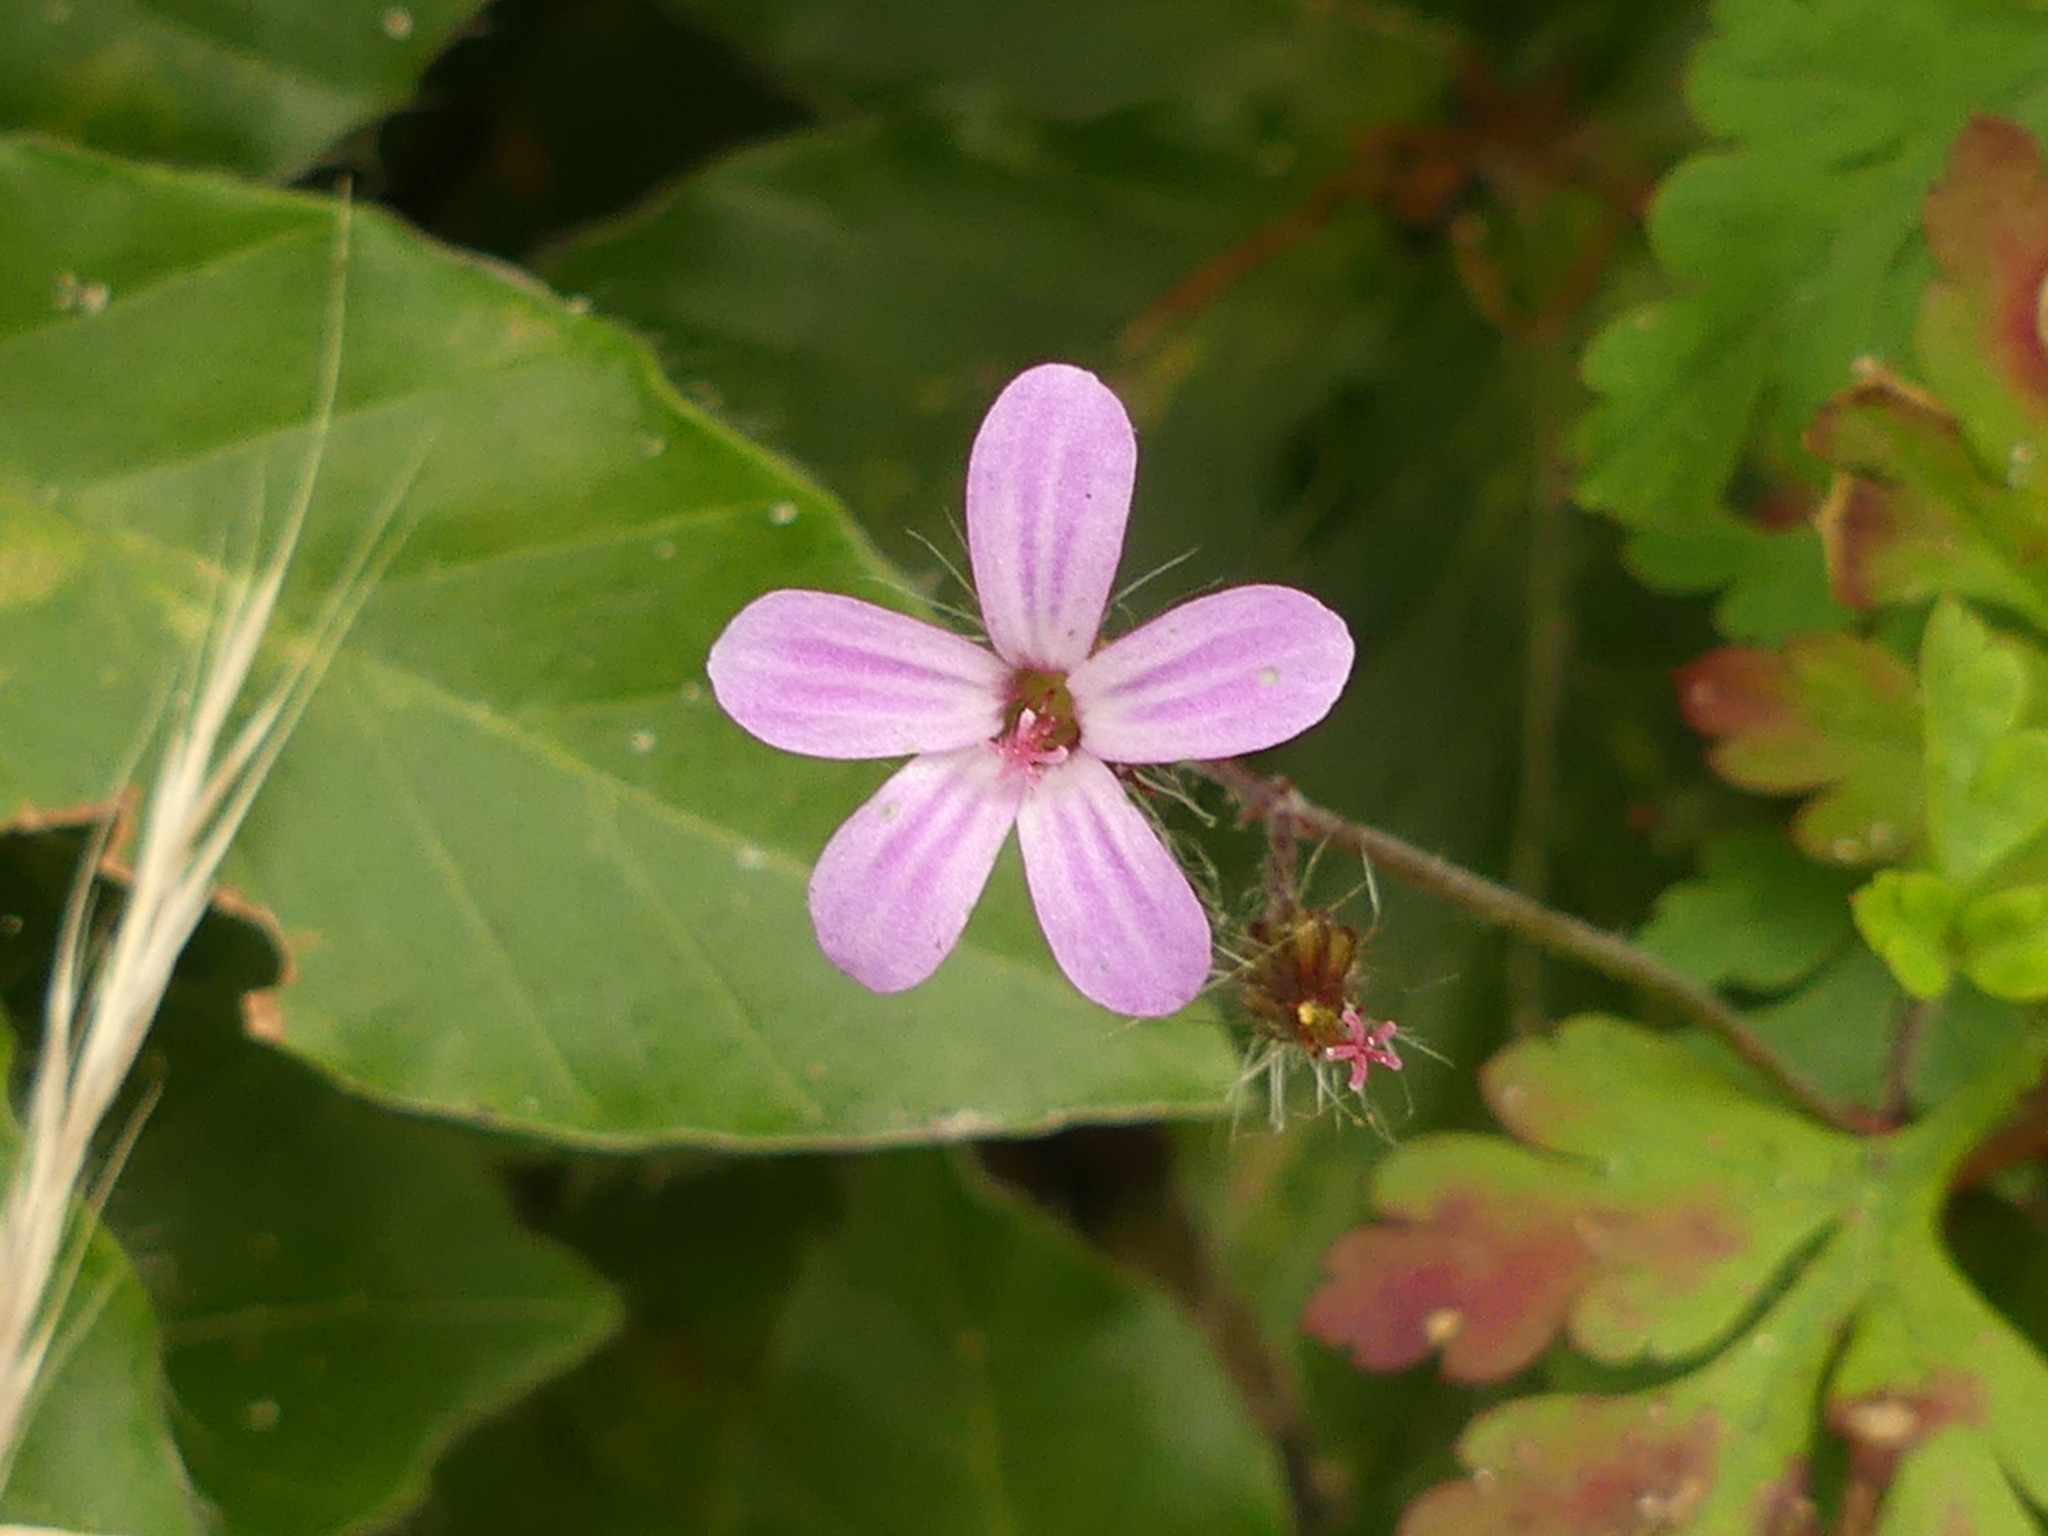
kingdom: Plantae
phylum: Tracheophyta
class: Magnoliopsida
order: Geraniales
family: Geraniaceae
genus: Geranium
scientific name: Geranium robertianum
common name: Herb-robert
